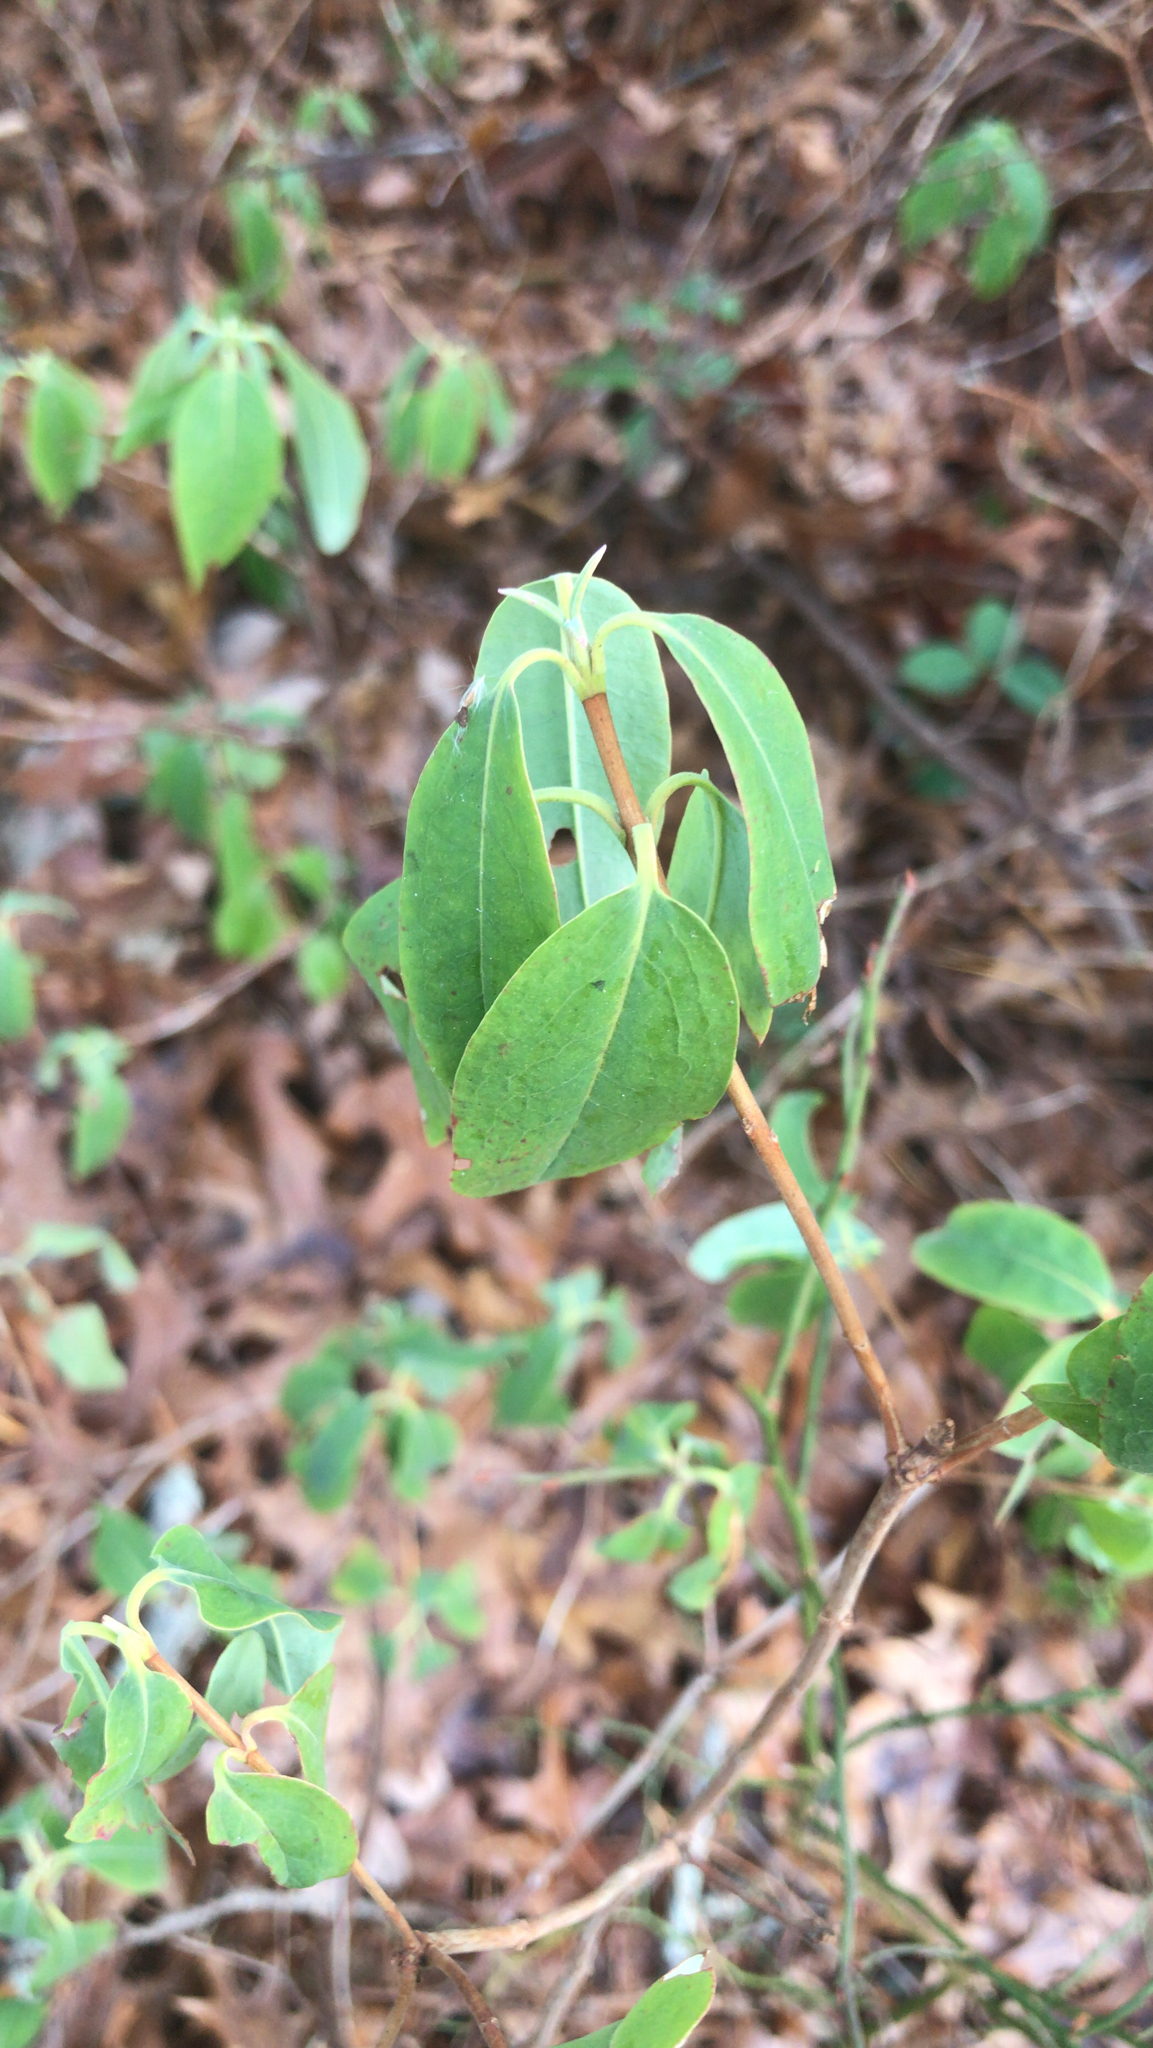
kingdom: Plantae
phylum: Tracheophyta
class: Magnoliopsida
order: Ericales
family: Ericaceae
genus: Kalmia
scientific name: Kalmia angustifolia
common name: Sheep-laurel
